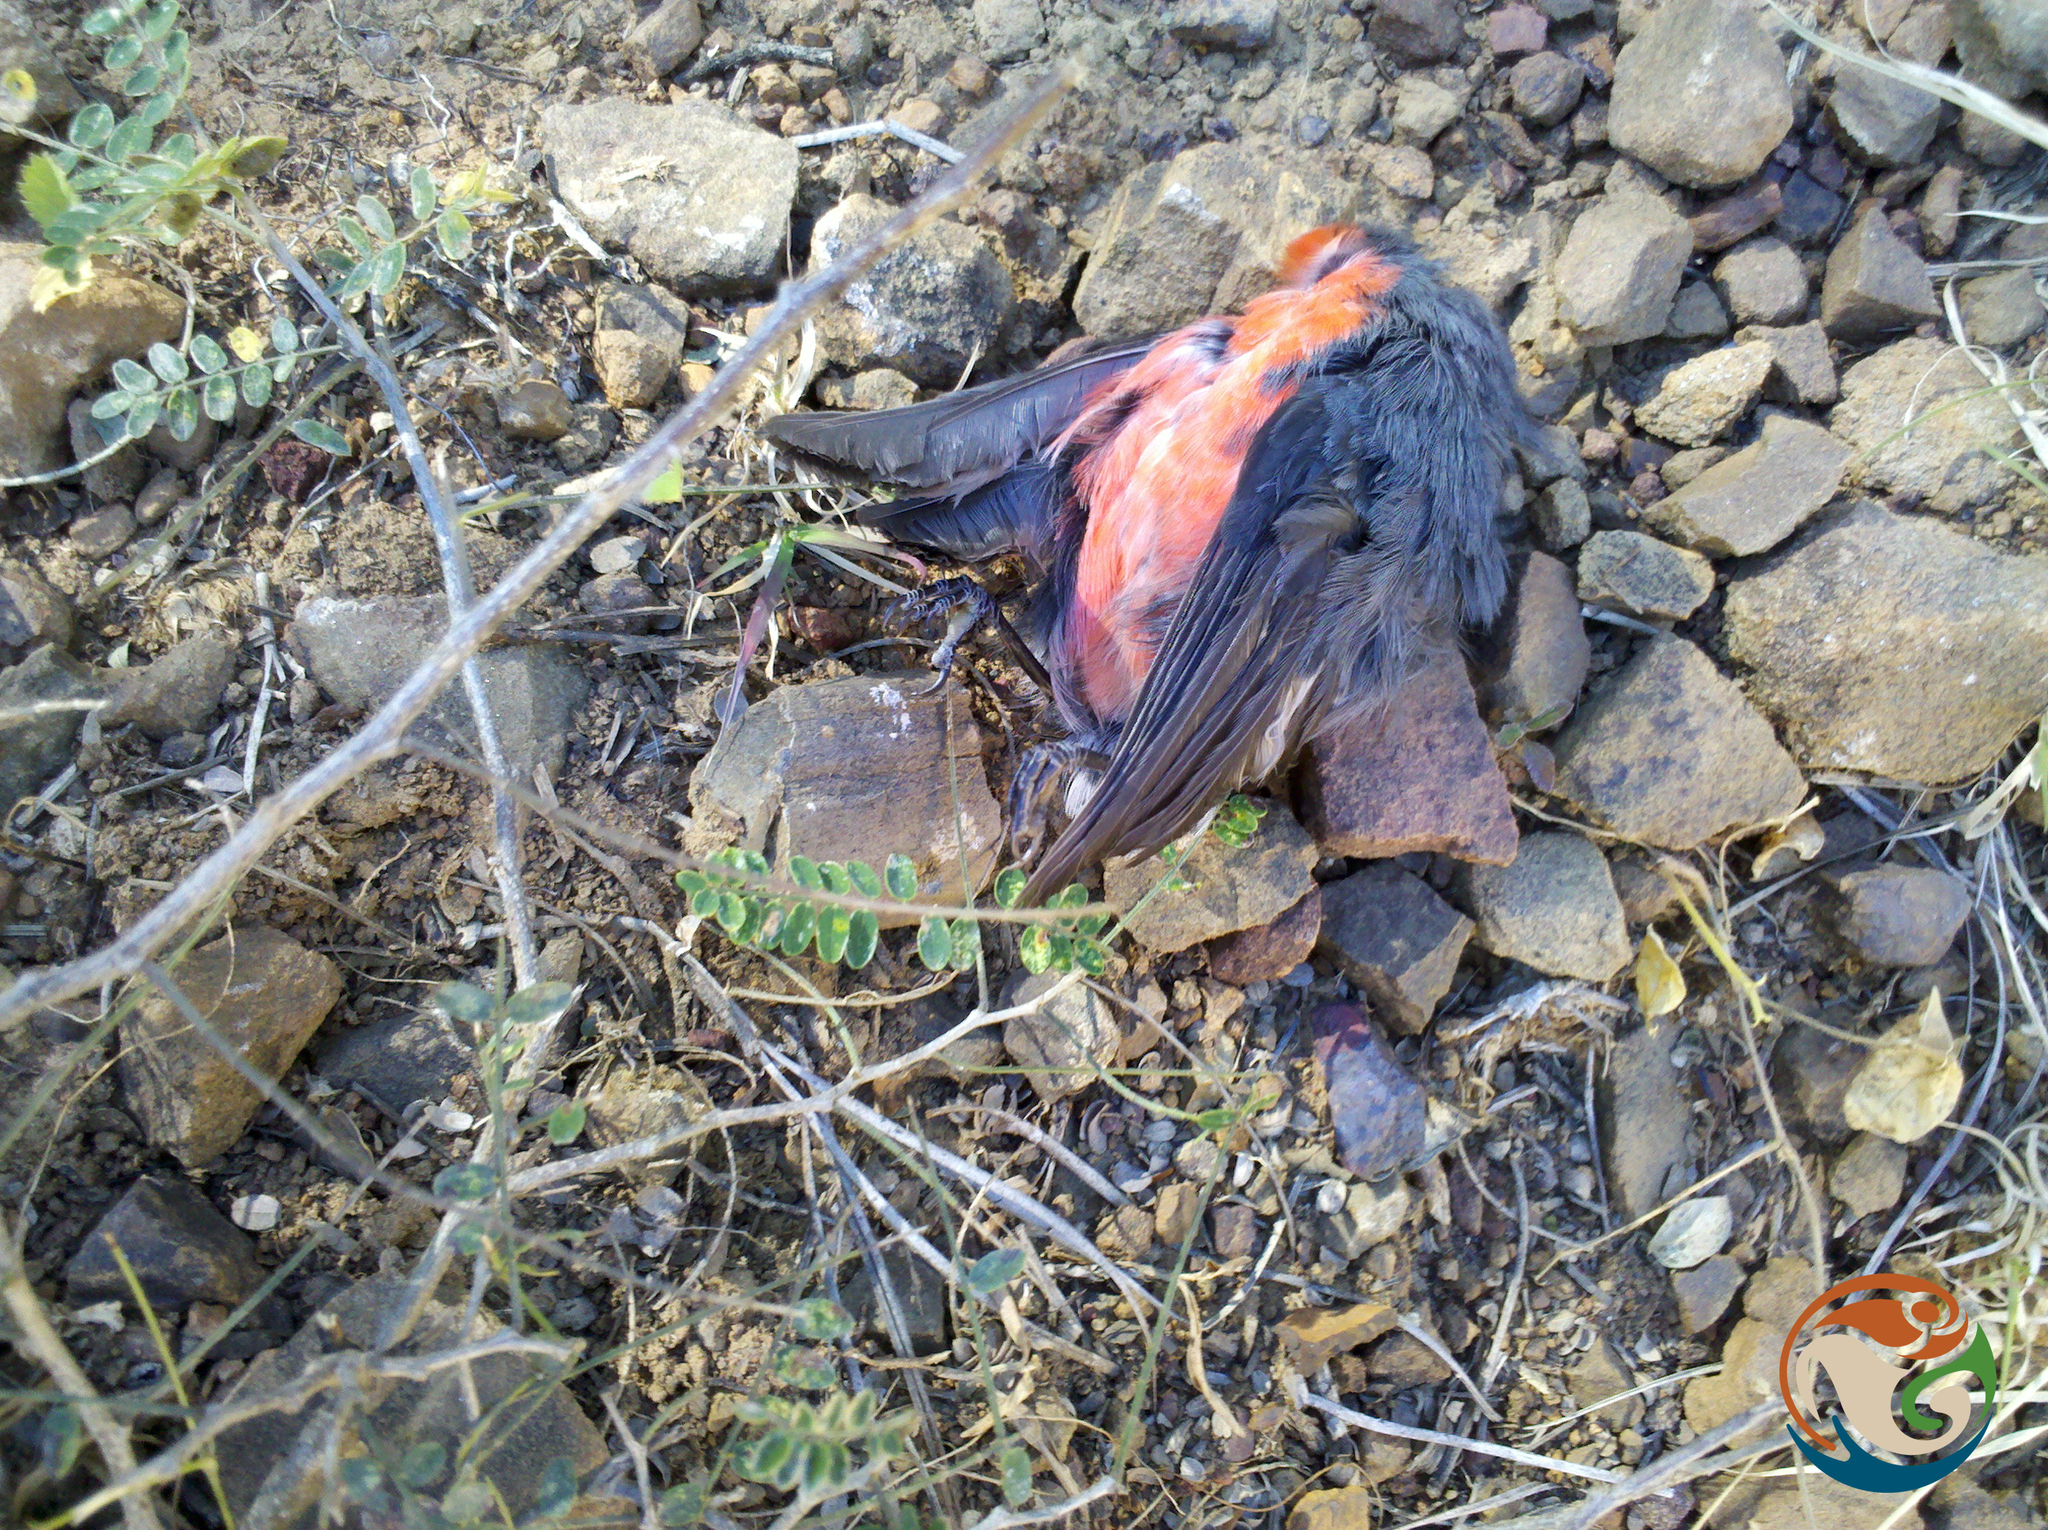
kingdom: Animalia
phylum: Chordata
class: Aves
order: Passeriformes
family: Parulidae
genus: Myioborus
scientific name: Myioborus miniatus
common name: Slate-throated redstart
